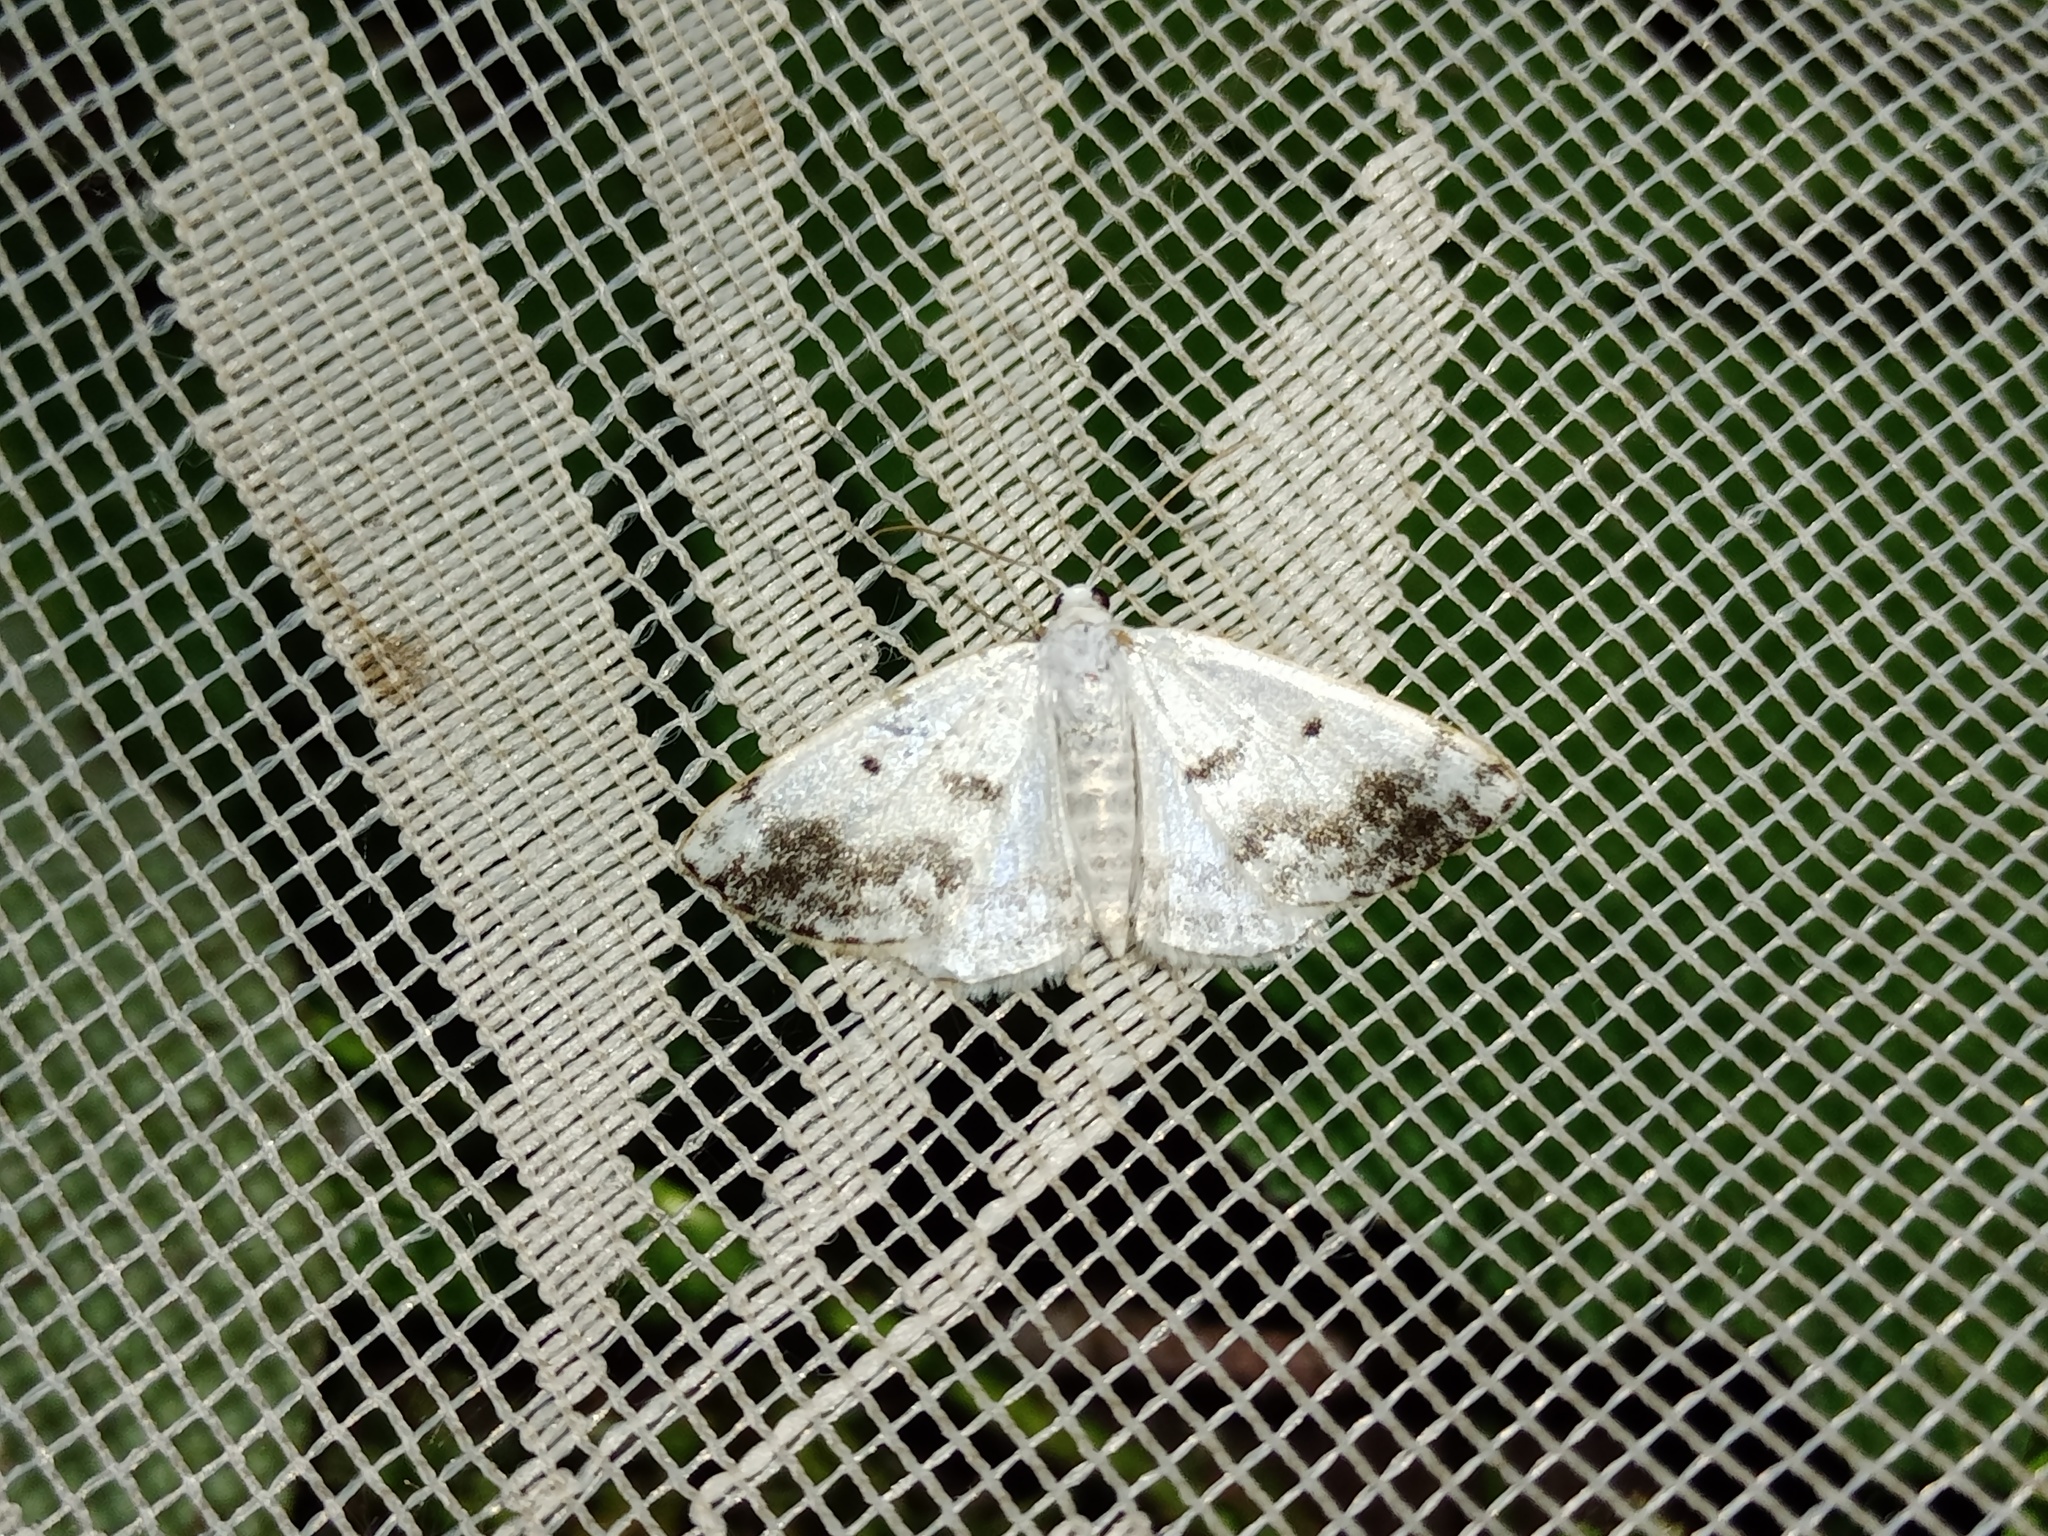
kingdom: Animalia
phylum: Arthropoda
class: Insecta
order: Lepidoptera
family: Geometridae
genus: Lomographa
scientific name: Lomographa temerata
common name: Clouded silver
